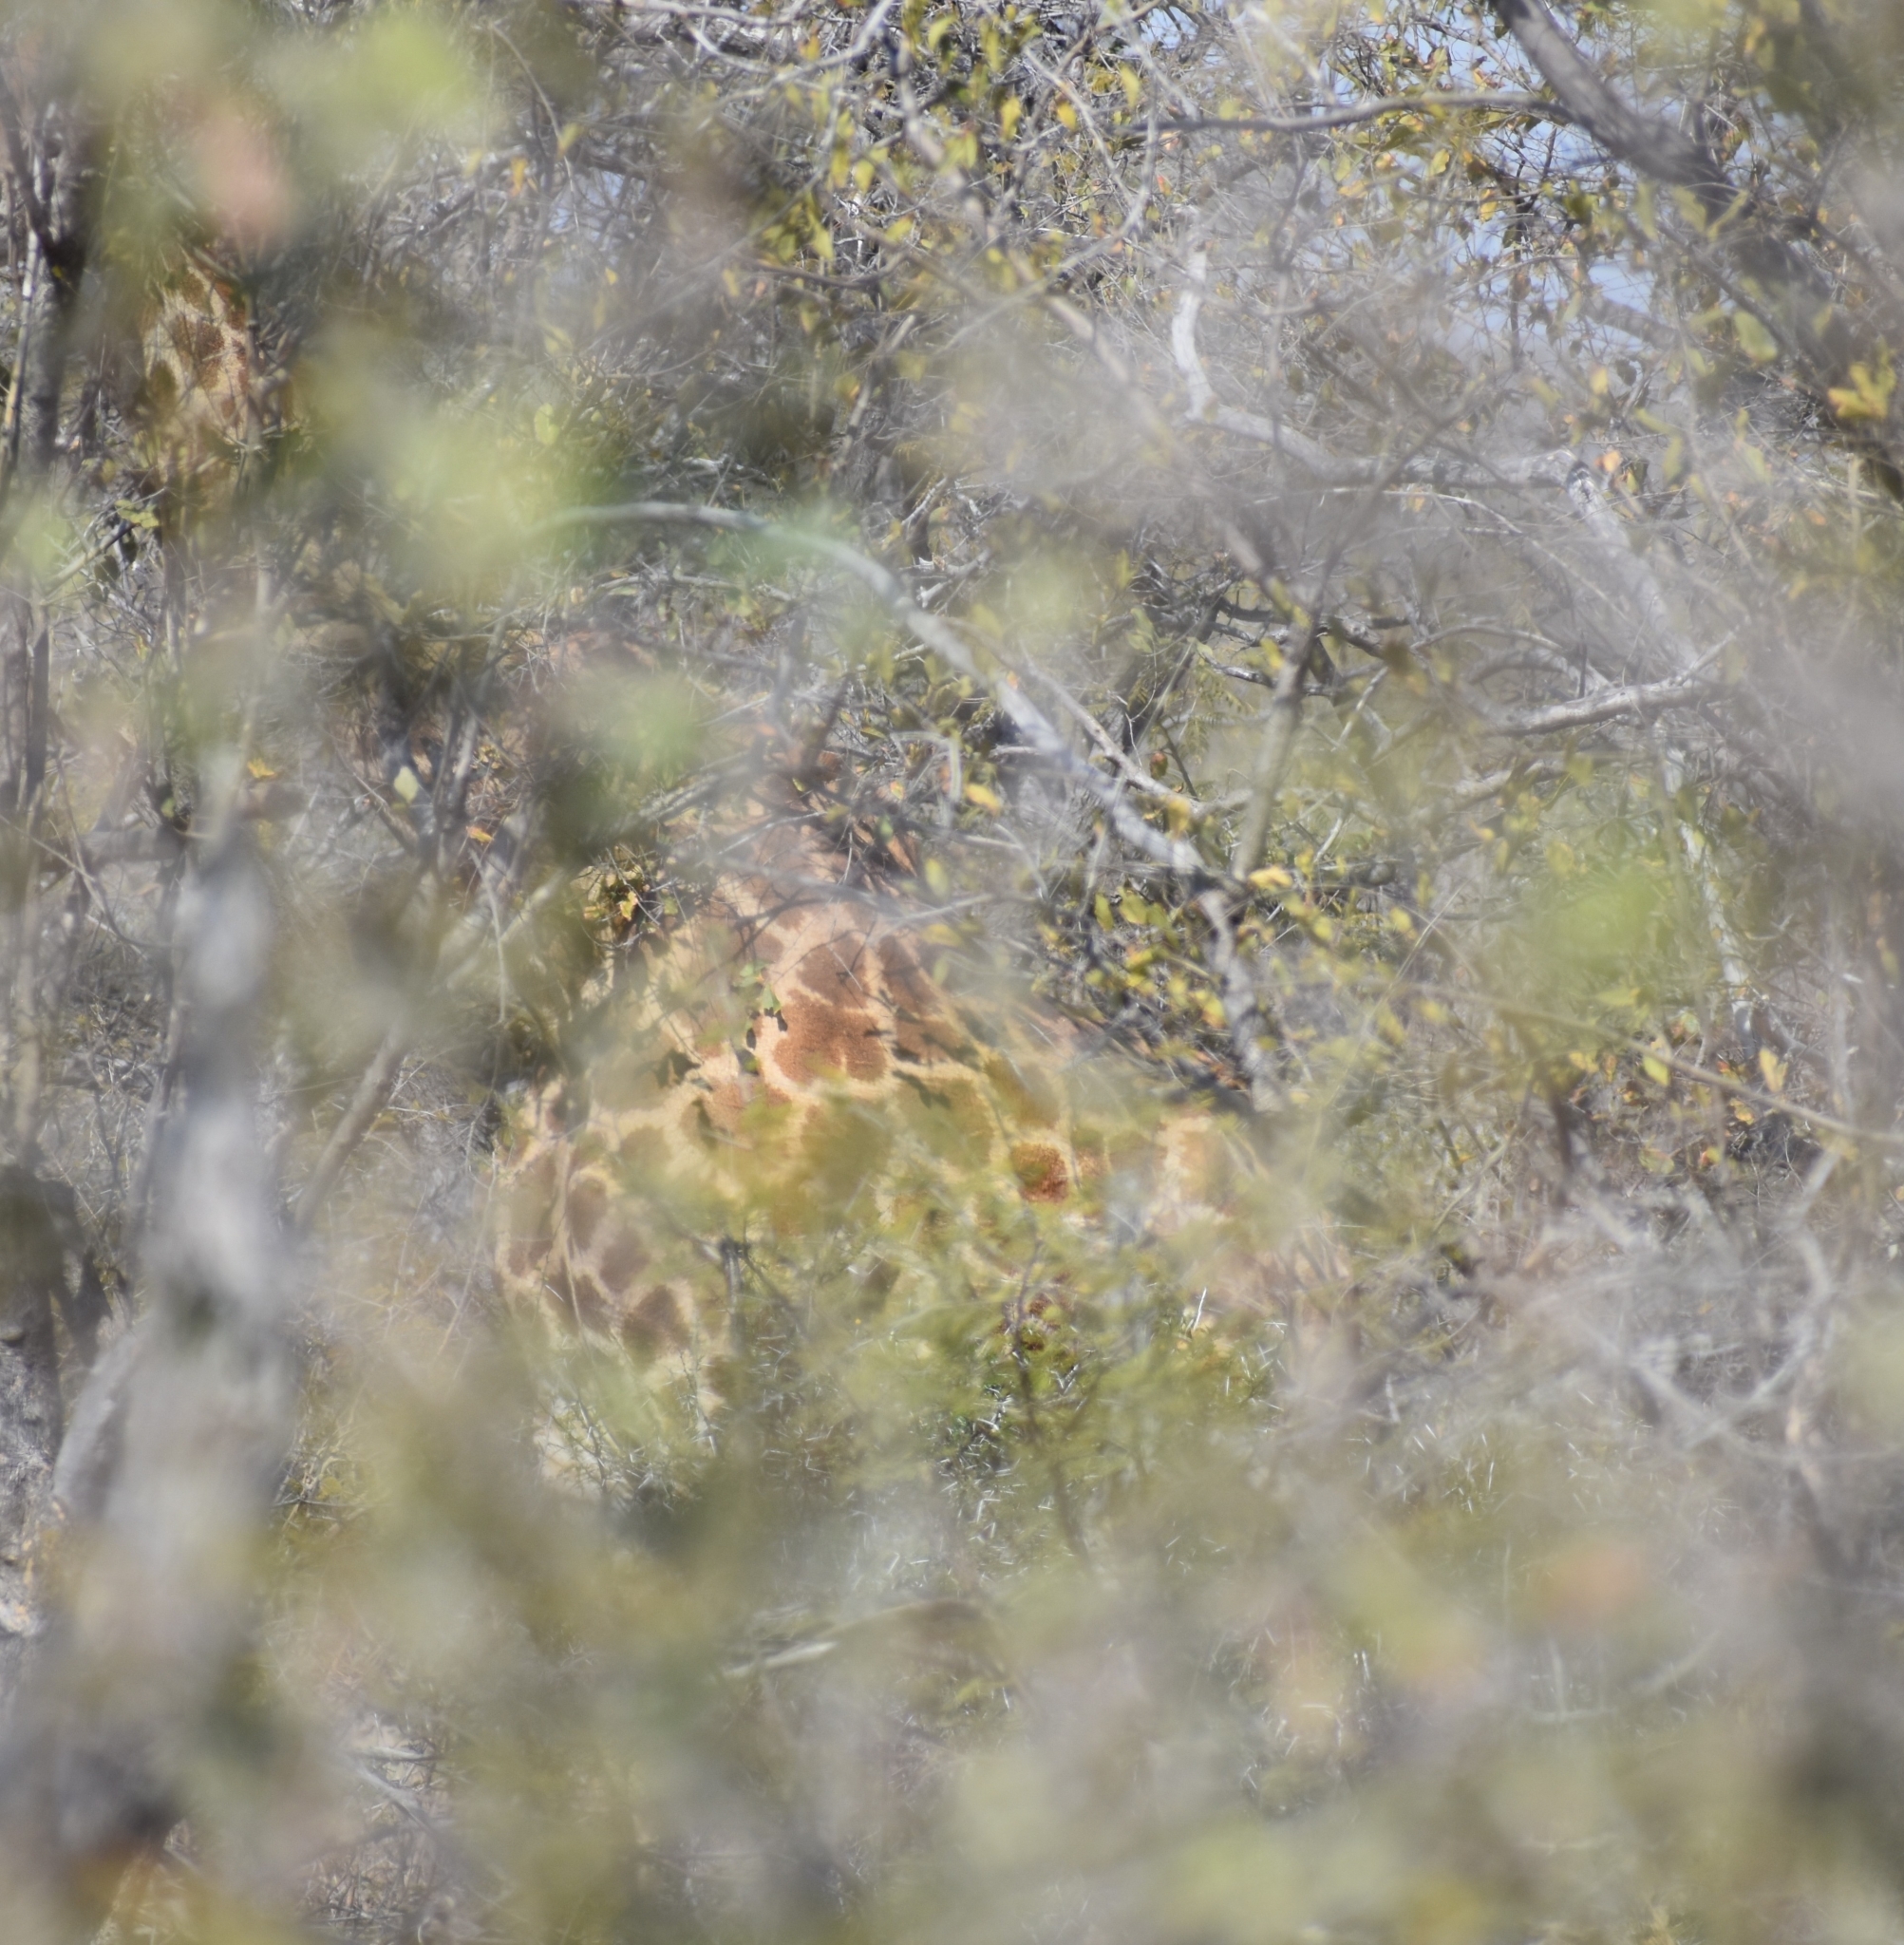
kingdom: Animalia
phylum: Chordata
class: Mammalia
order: Artiodactyla
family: Giraffidae
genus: Giraffa
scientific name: Giraffa giraffa
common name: Southern giraffe
